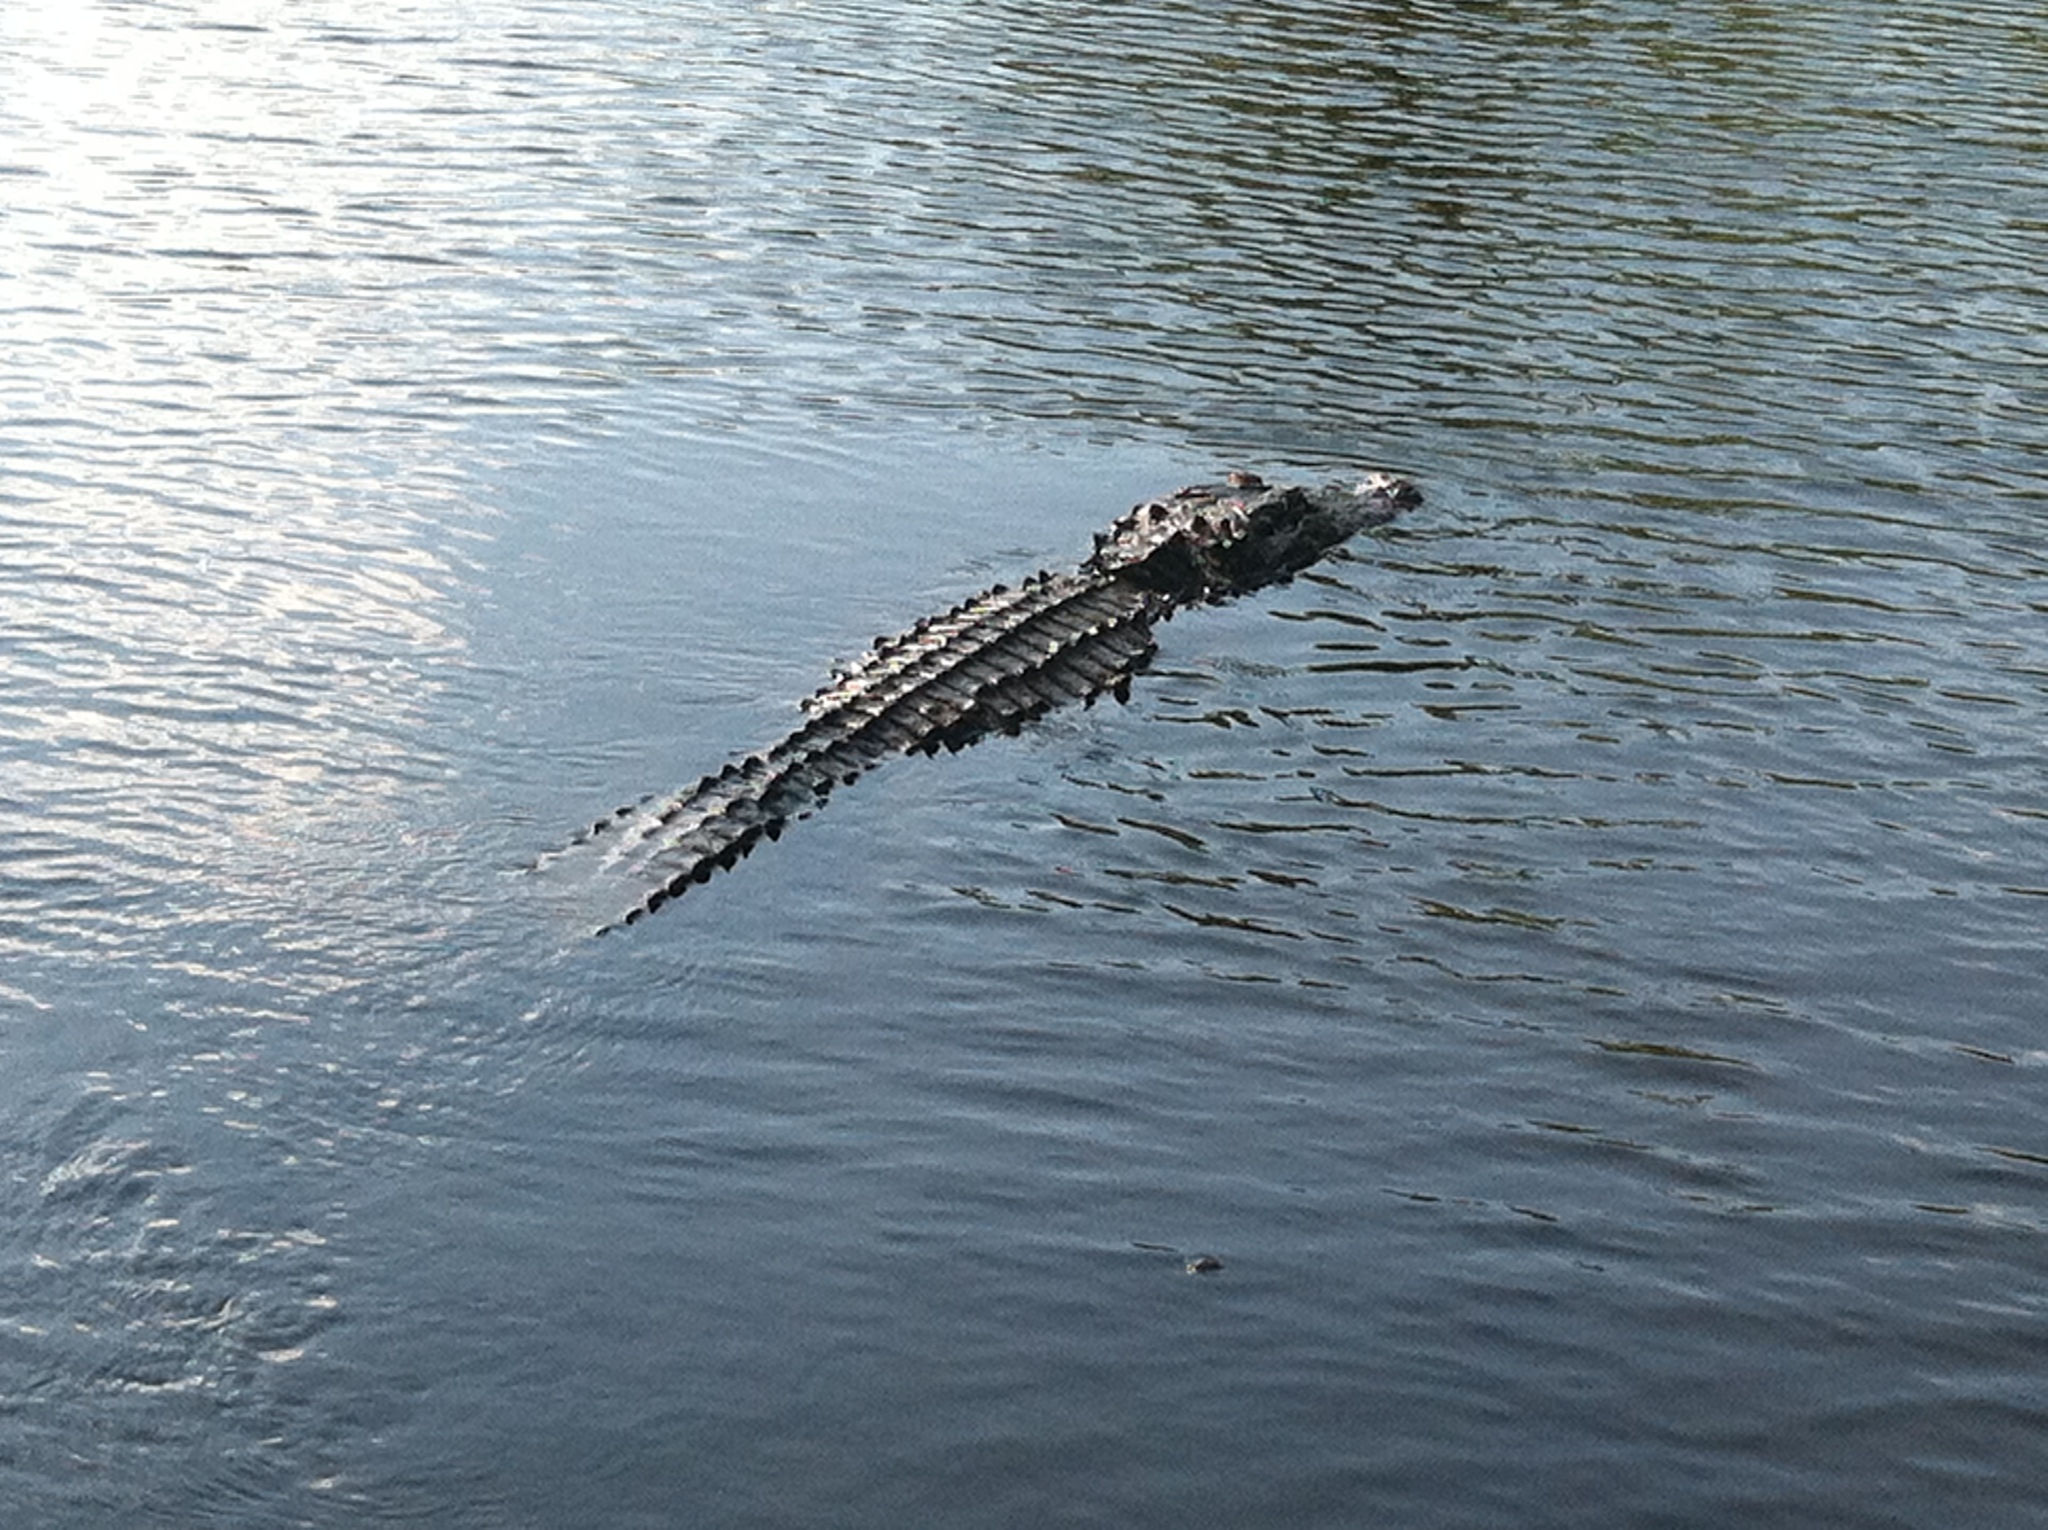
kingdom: Animalia
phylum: Chordata
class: Crocodylia
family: Alligatoridae
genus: Alligator
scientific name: Alligator mississippiensis
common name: American alligator
